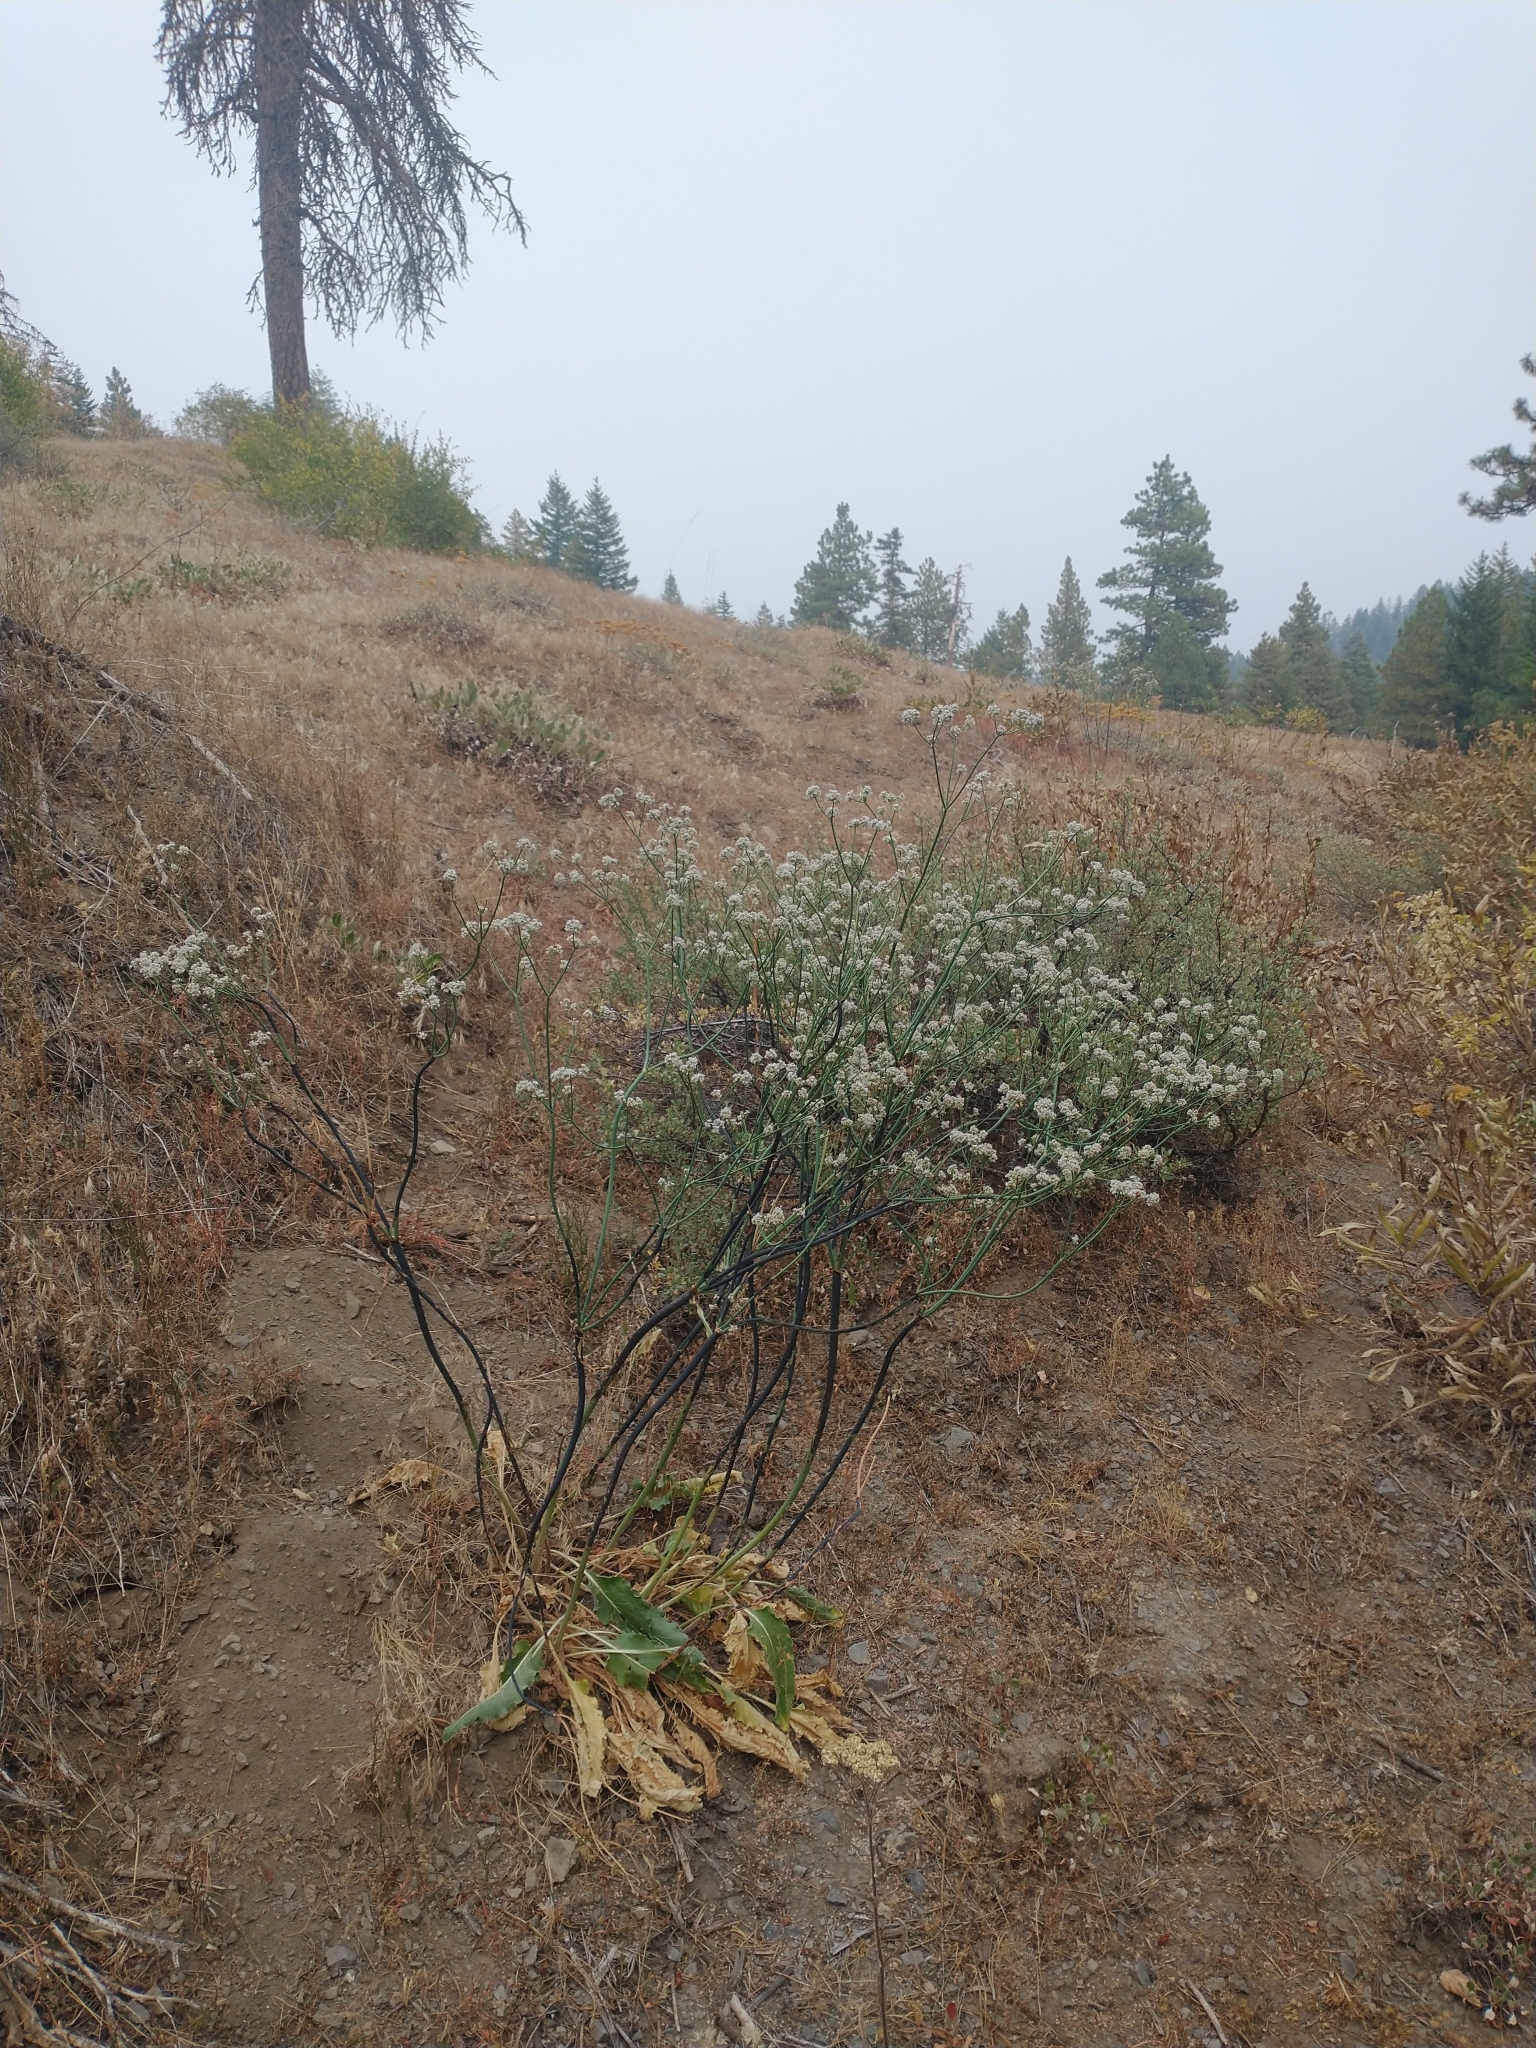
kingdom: Plantae
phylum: Tracheophyta
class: Magnoliopsida
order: Caryophyllales
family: Polygonaceae
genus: Eriogonum
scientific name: Eriogonum elatum
